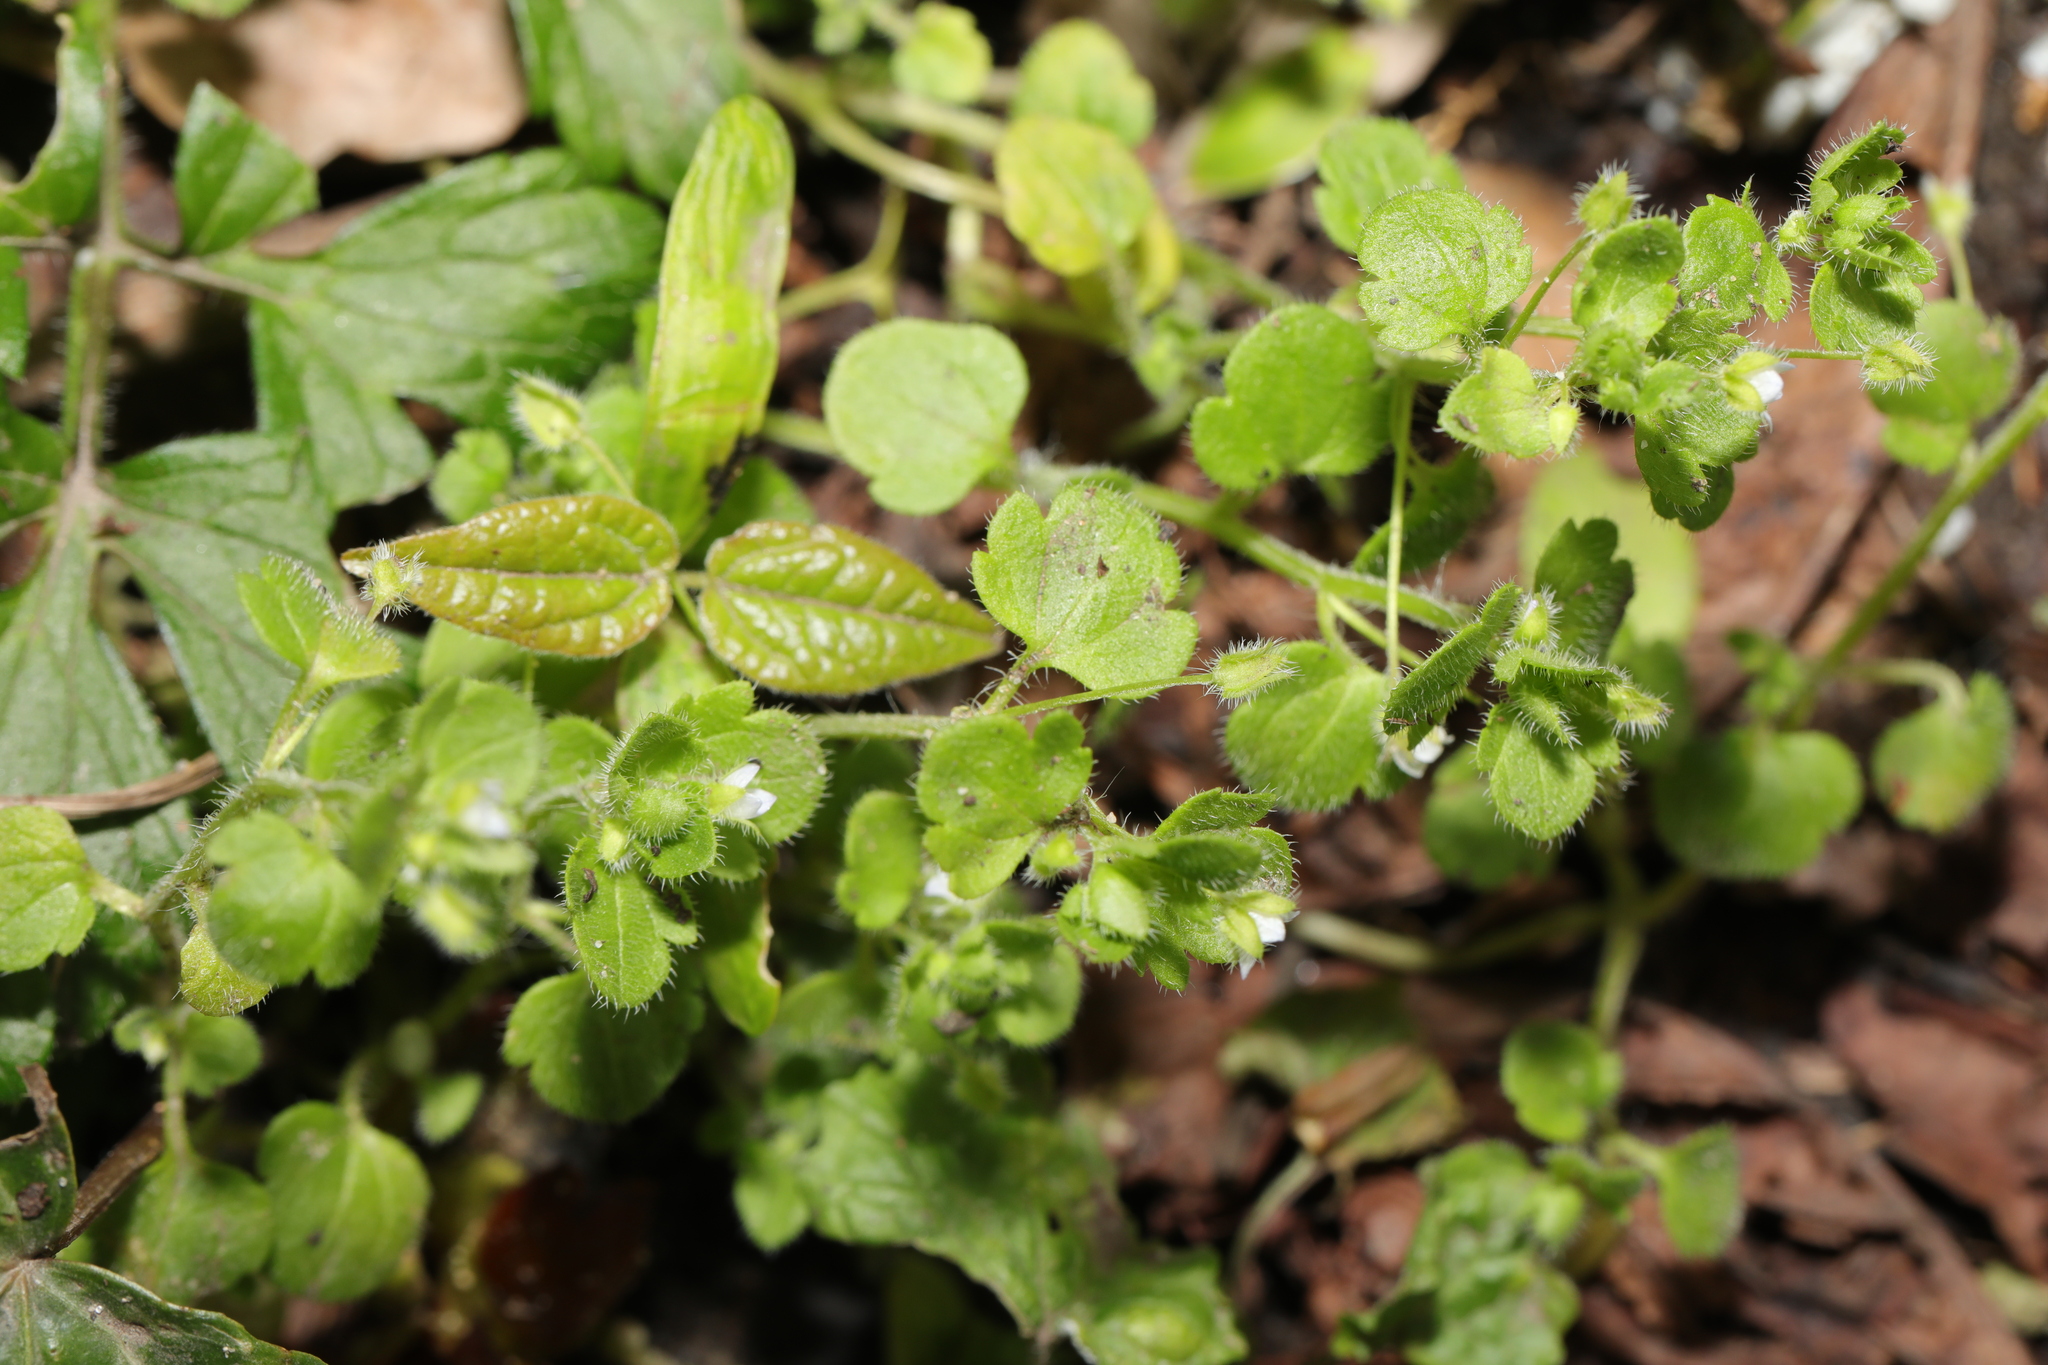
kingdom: Plantae
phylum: Tracheophyta
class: Magnoliopsida
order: Lamiales
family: Plantaginaceae
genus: Veronica
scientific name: Veronica sublobata
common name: False ivy-leaved speedwell
